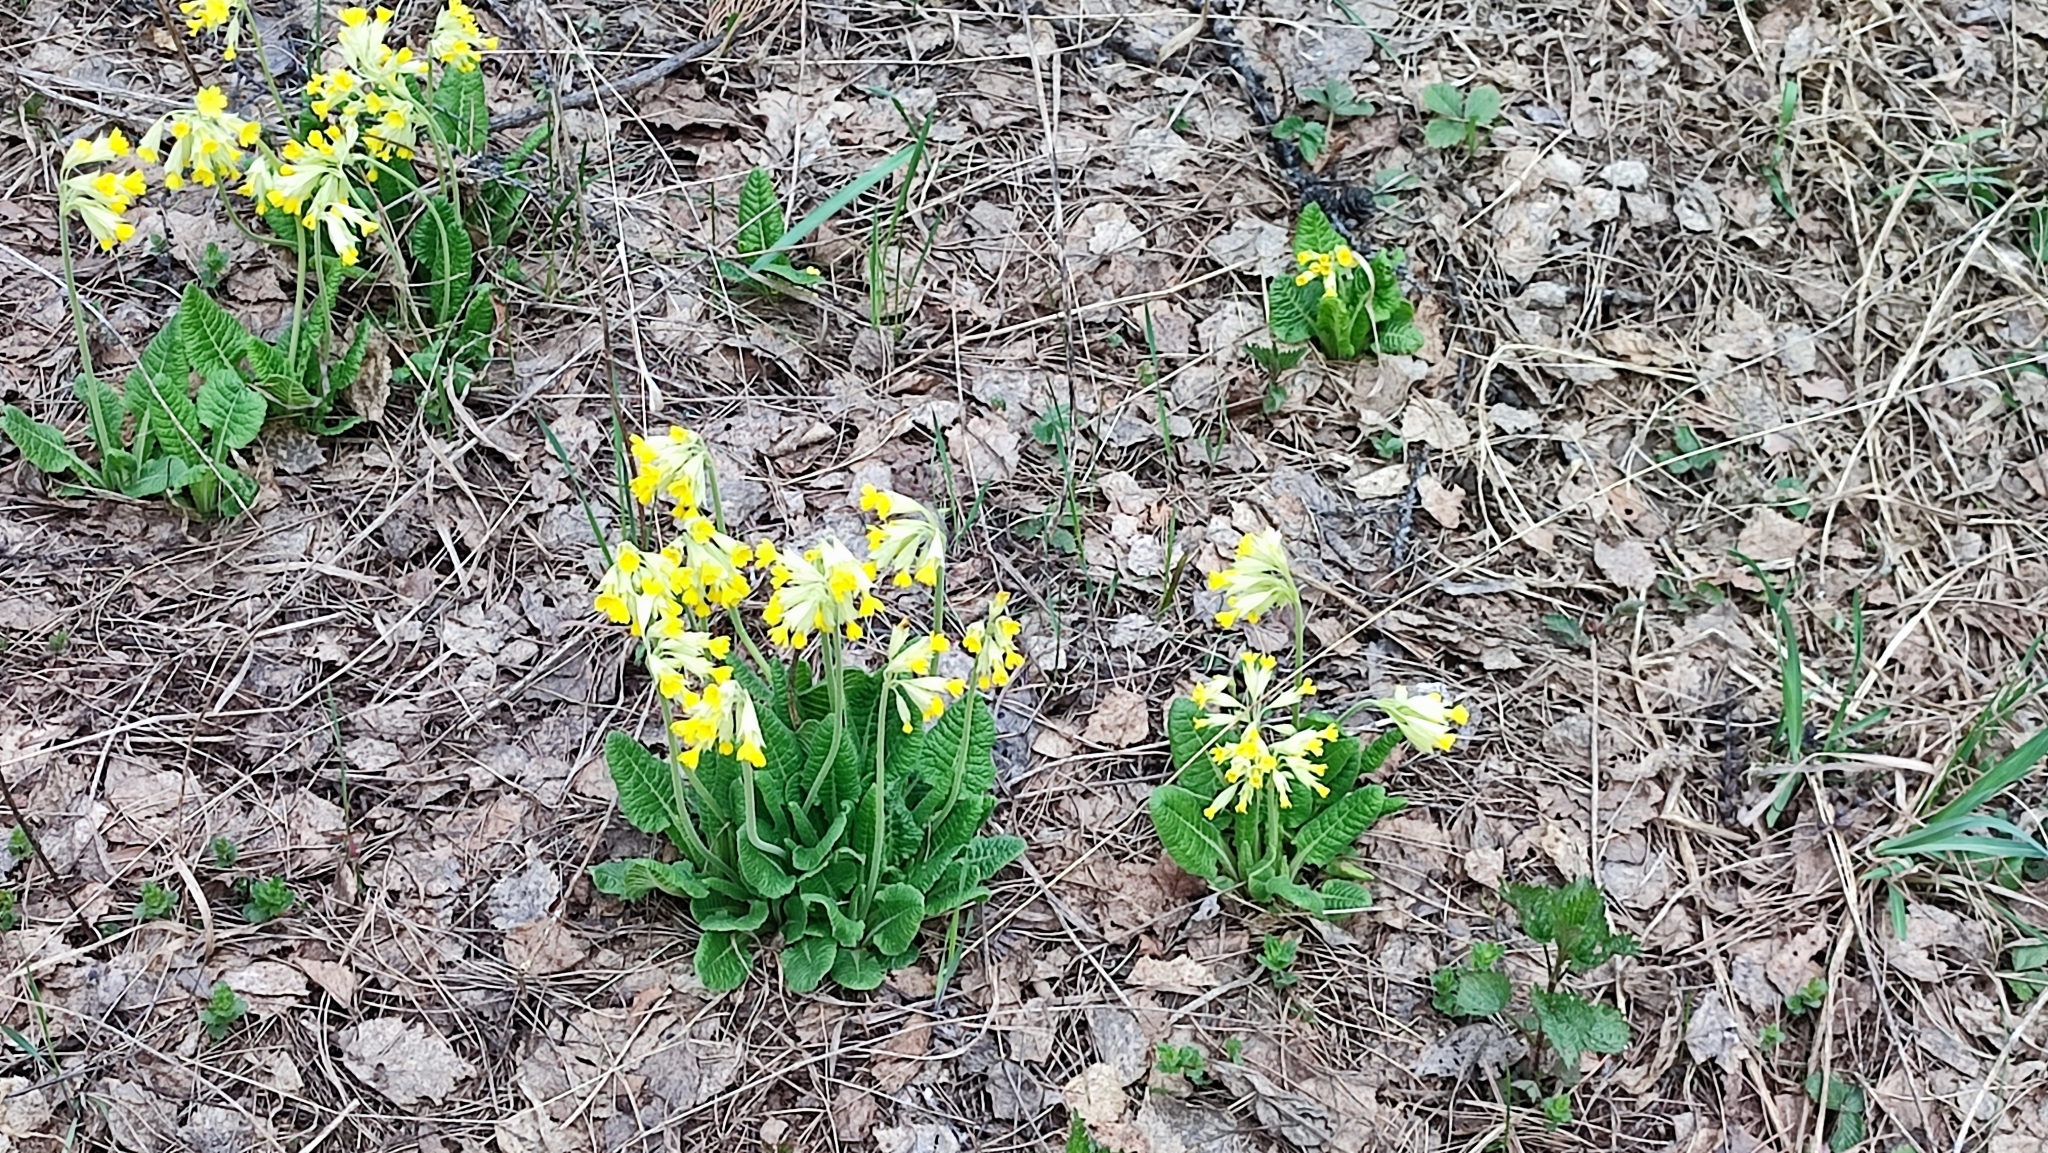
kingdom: Plantae
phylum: Tracheophyta
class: Magnoliopsida
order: Ericales
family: Primulaceae
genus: Primula
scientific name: Primula veris
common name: Cowslip
